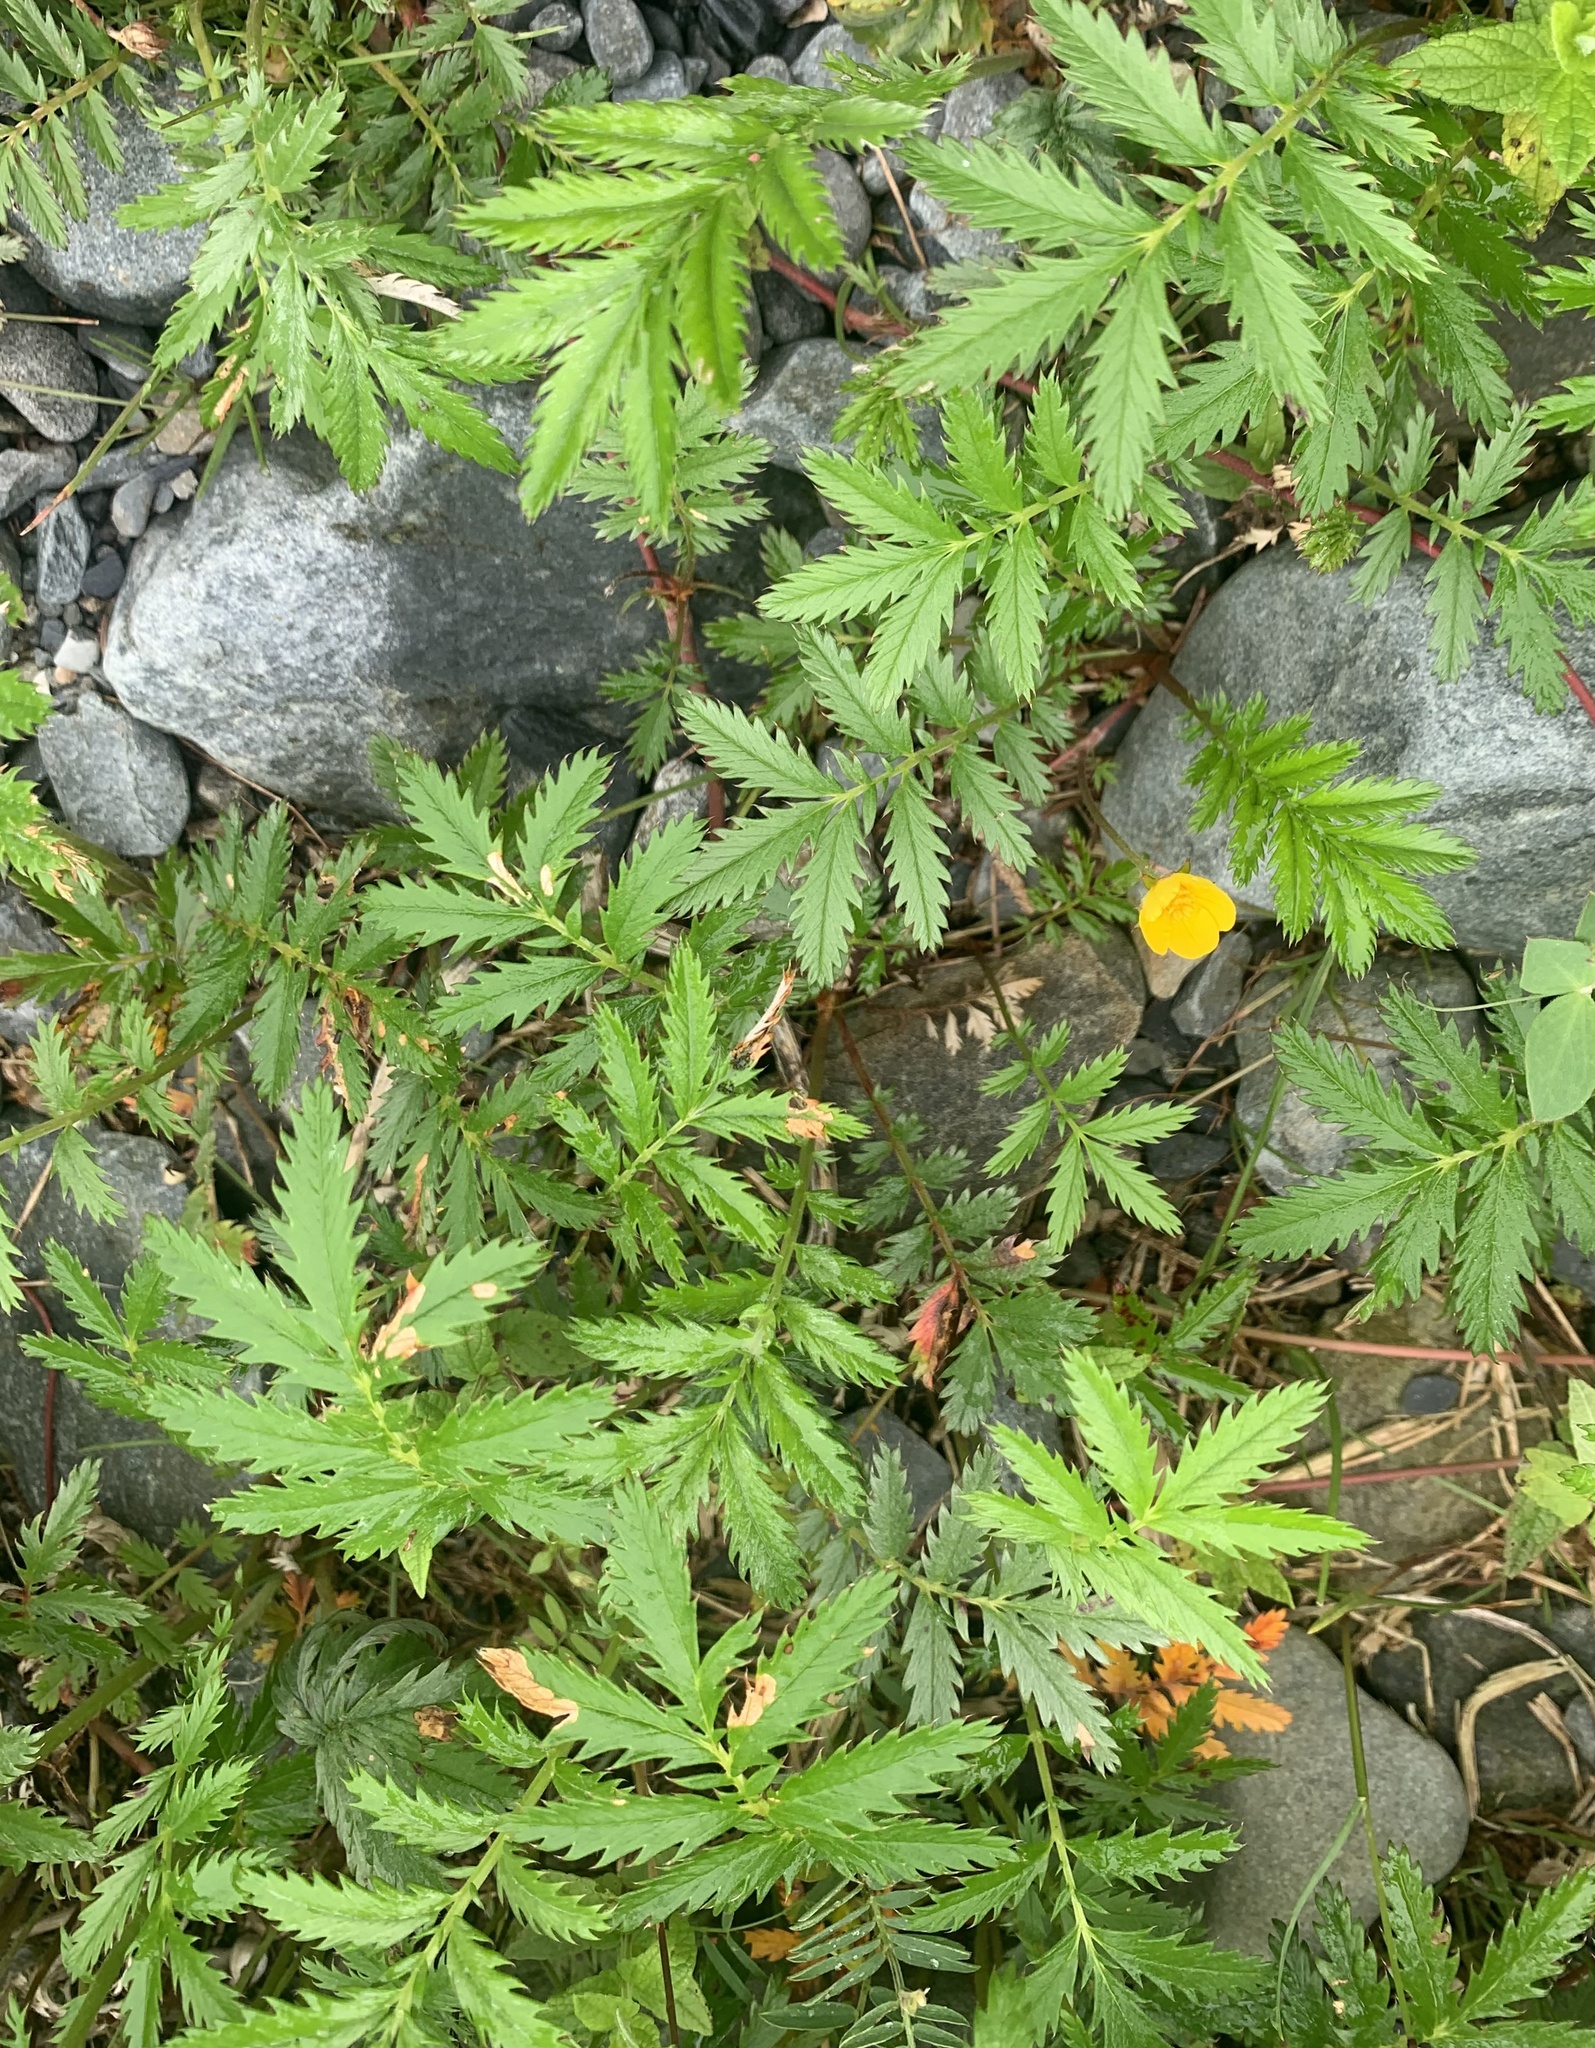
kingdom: Plantae
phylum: Tracheophyta
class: Magnoliopsida
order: Rosales
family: Rosaceae
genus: Argentina
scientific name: Argentina anserina
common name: Common silverweed
